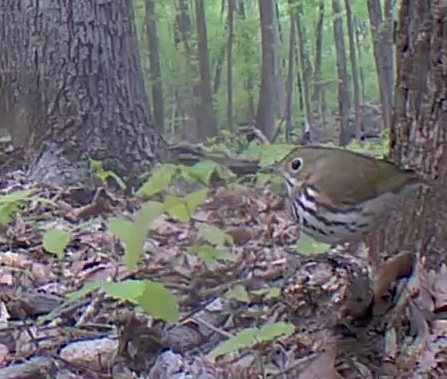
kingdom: Animalia
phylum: Chordata
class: Aves
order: Passeriformes
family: Parulidae
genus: Seiurus
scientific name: Seiurus aurocapilla
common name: Ovenbird
